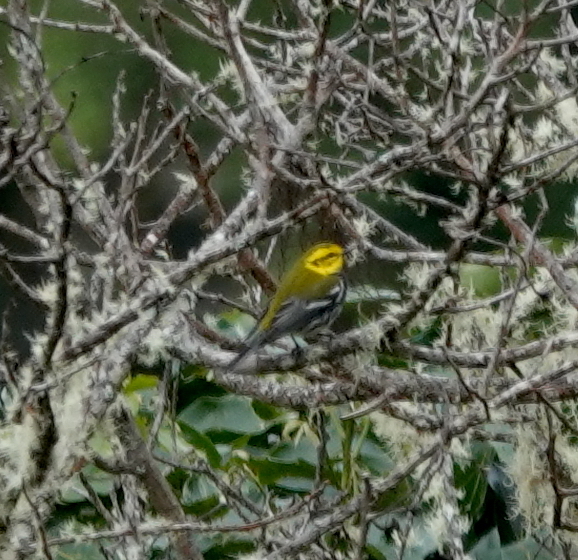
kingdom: Animalia
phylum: Chordata
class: Aves
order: Passeriformes
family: Parulidae
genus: Setophaga
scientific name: Setophaga virens
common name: Black-throated green warbler
